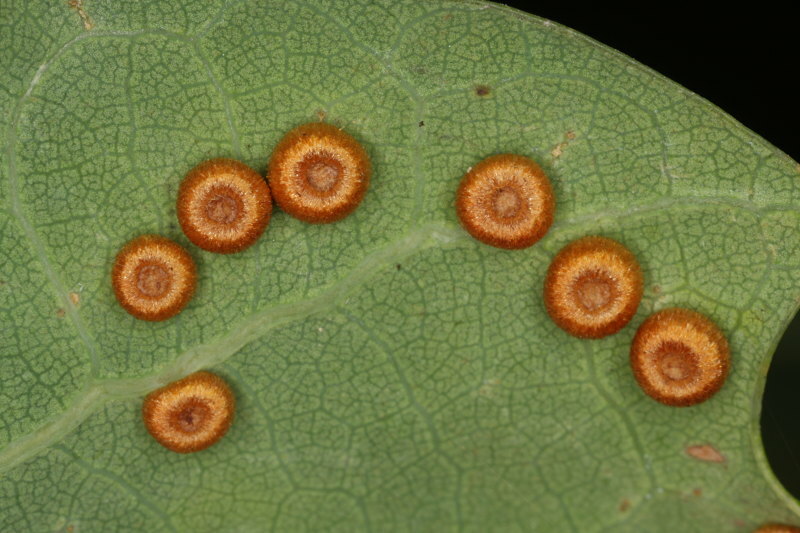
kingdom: Animalia
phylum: Arthropoda
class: Insecta
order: Hymenoptera
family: Cynipidae
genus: Neuroterus
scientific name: Neuroterus numismalis
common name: Silk-button spangle gall
